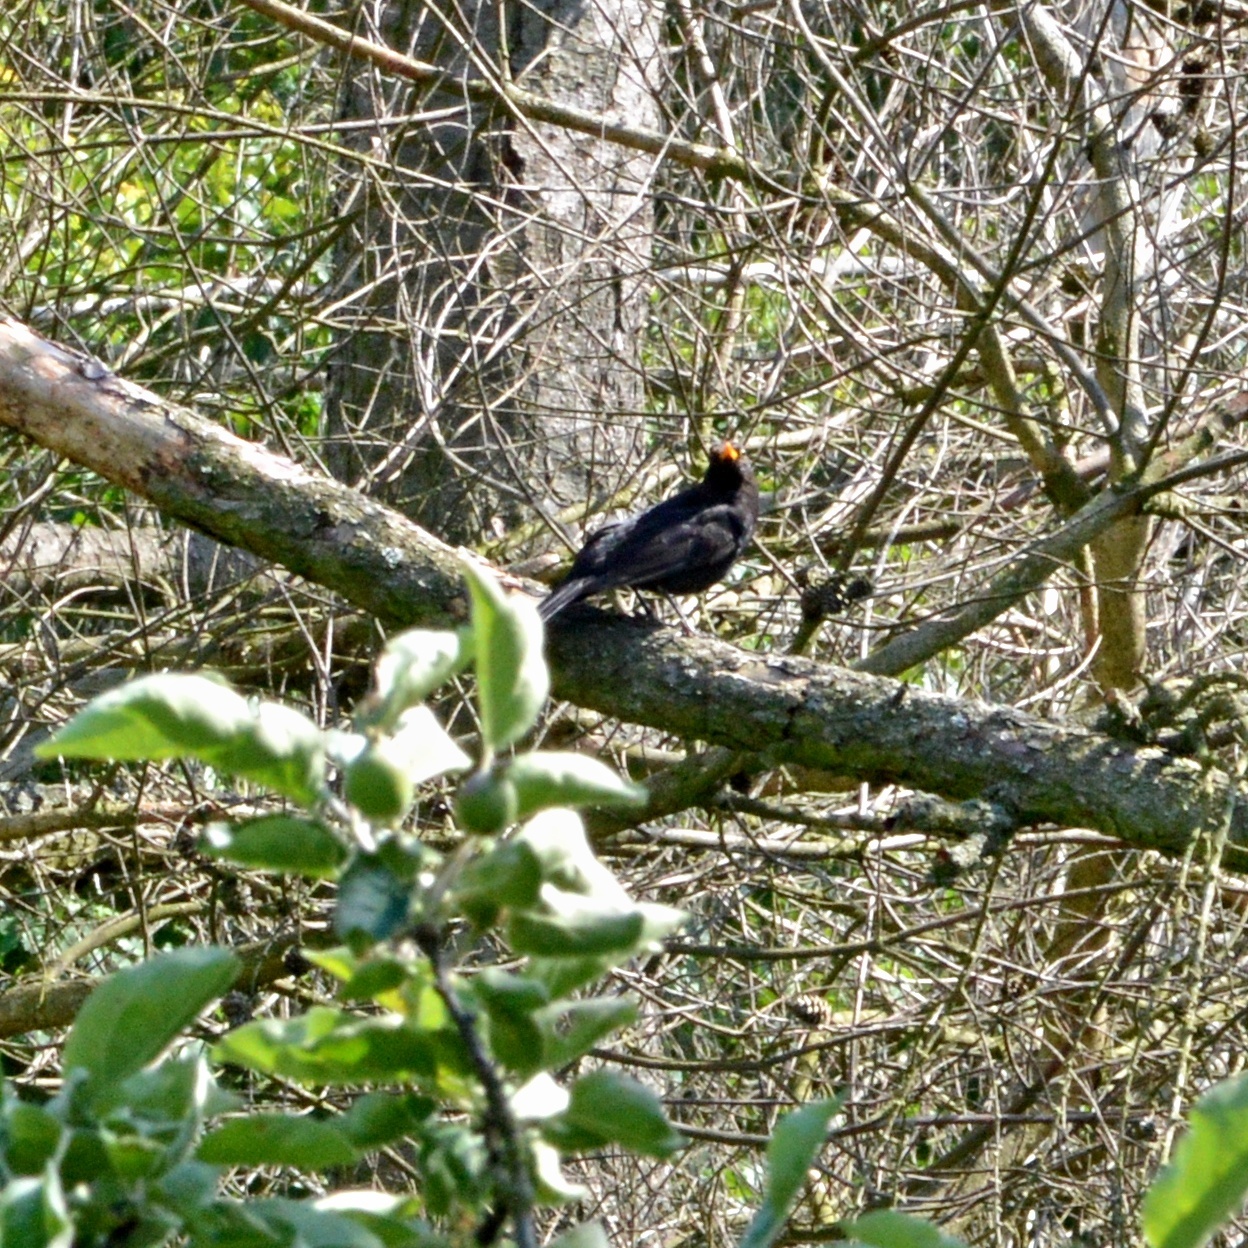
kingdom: Animalia
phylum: Chordata
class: Aves
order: Passeriformes
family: Turdidae
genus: Turdus
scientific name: Turdus merula
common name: Common blackbird
